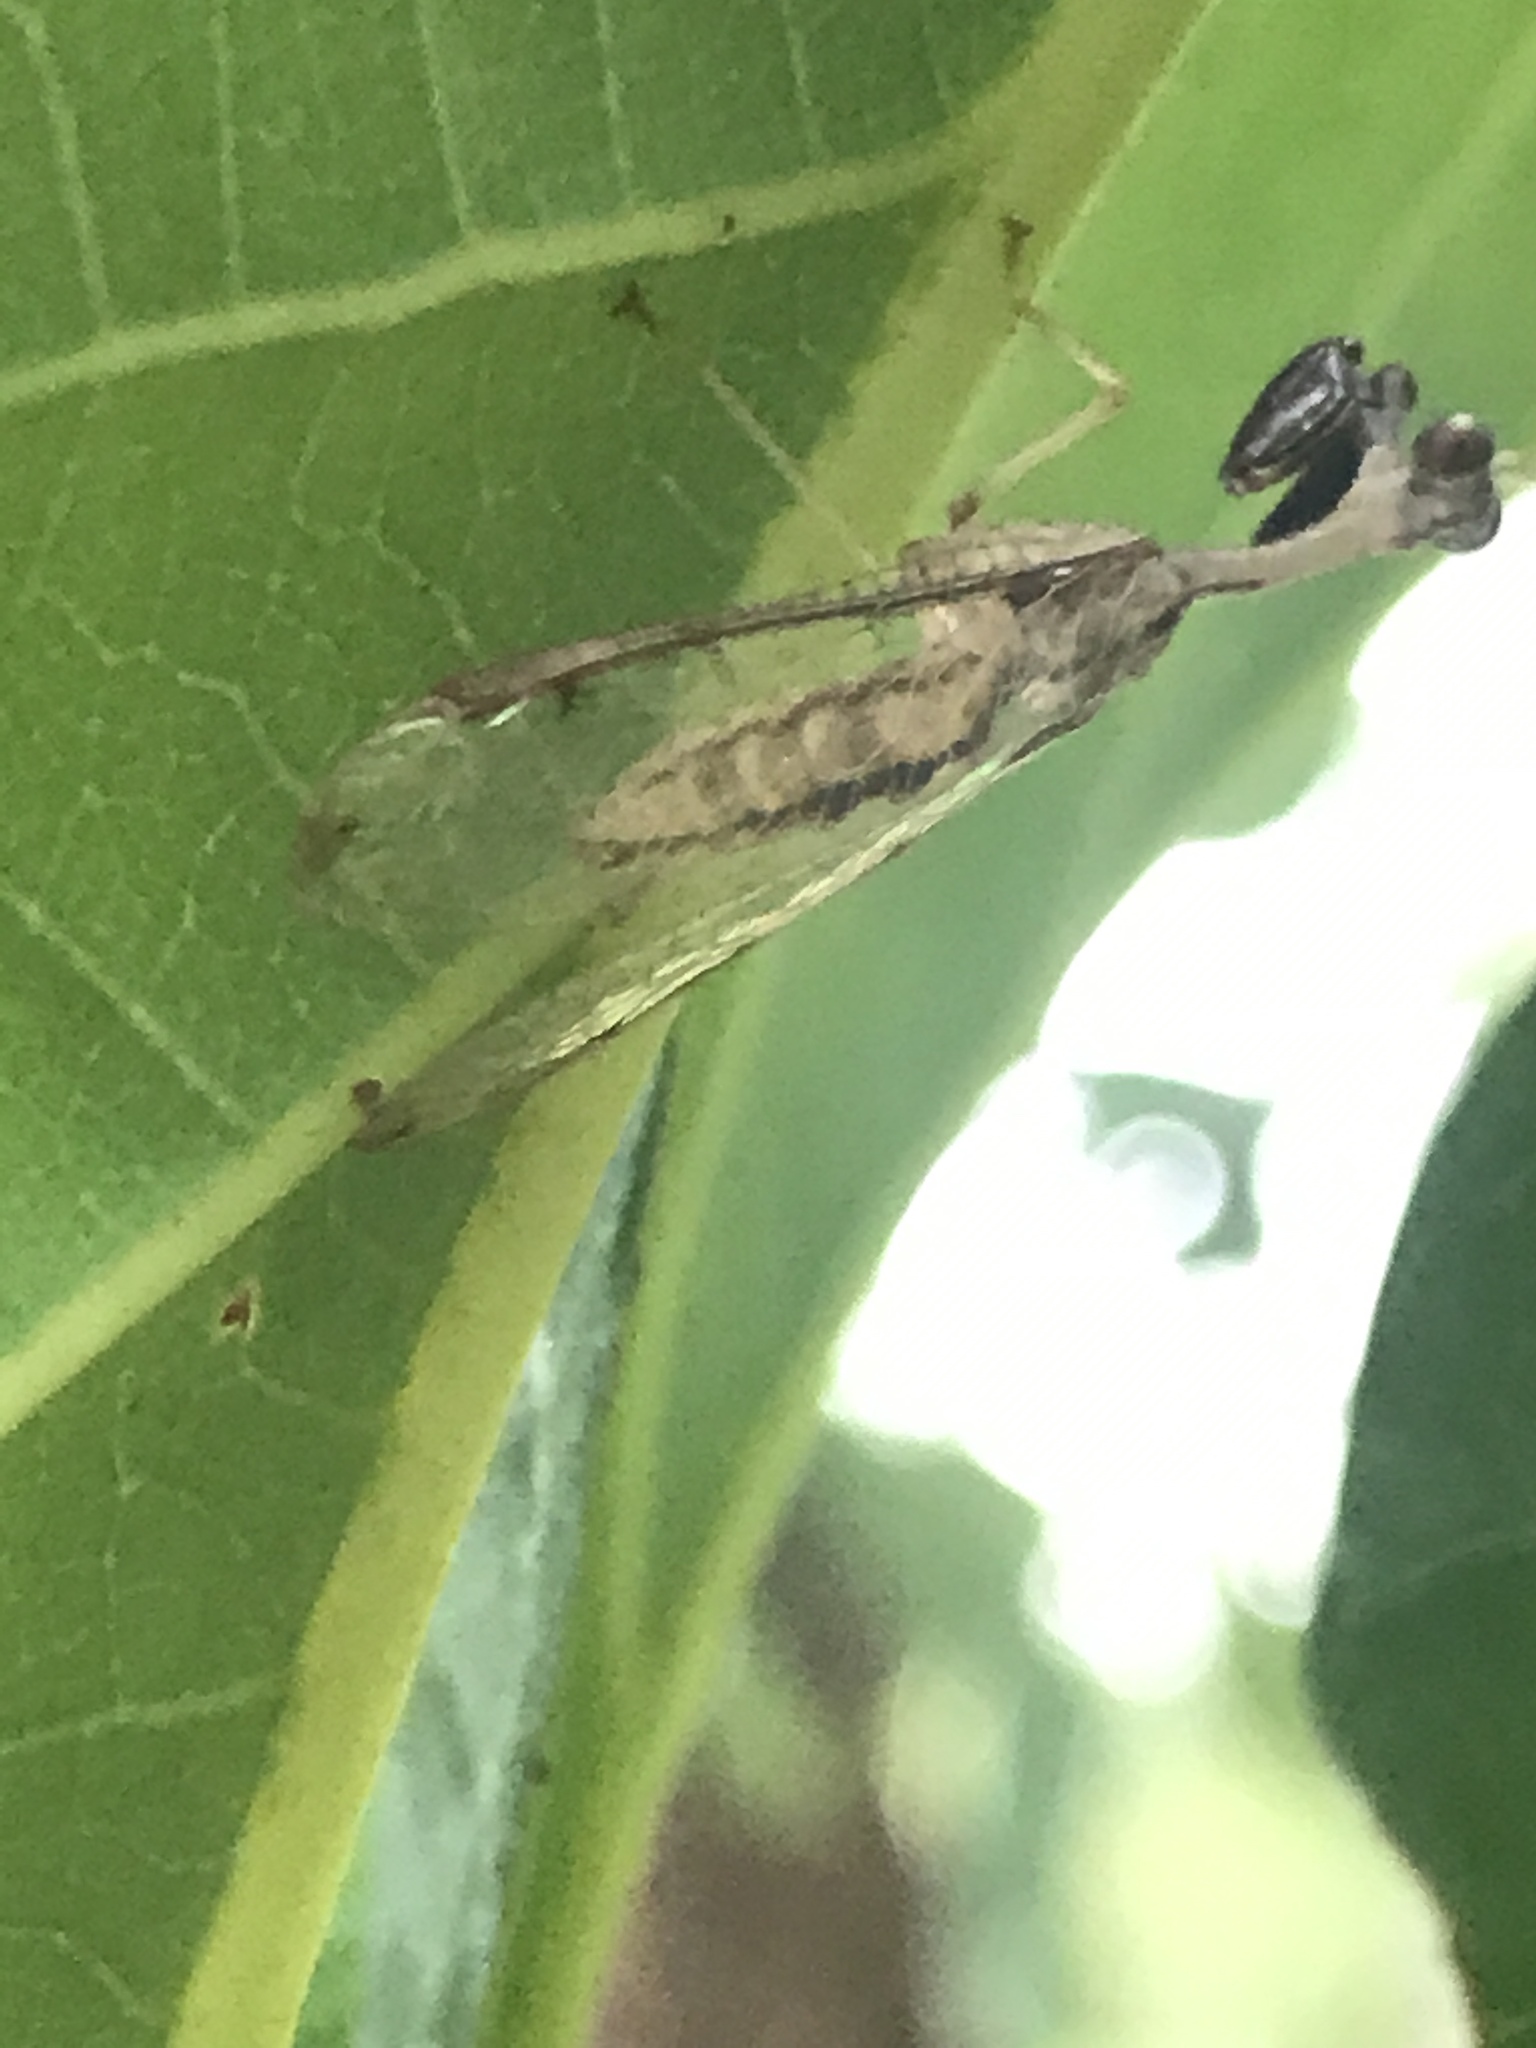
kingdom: Animalia
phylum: Arthropoda
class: Insecta
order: Neuroptera
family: Mantispidae
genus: Dicromantispa
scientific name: Dicromantispa interrupta
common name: Four-spotted mantidfly
